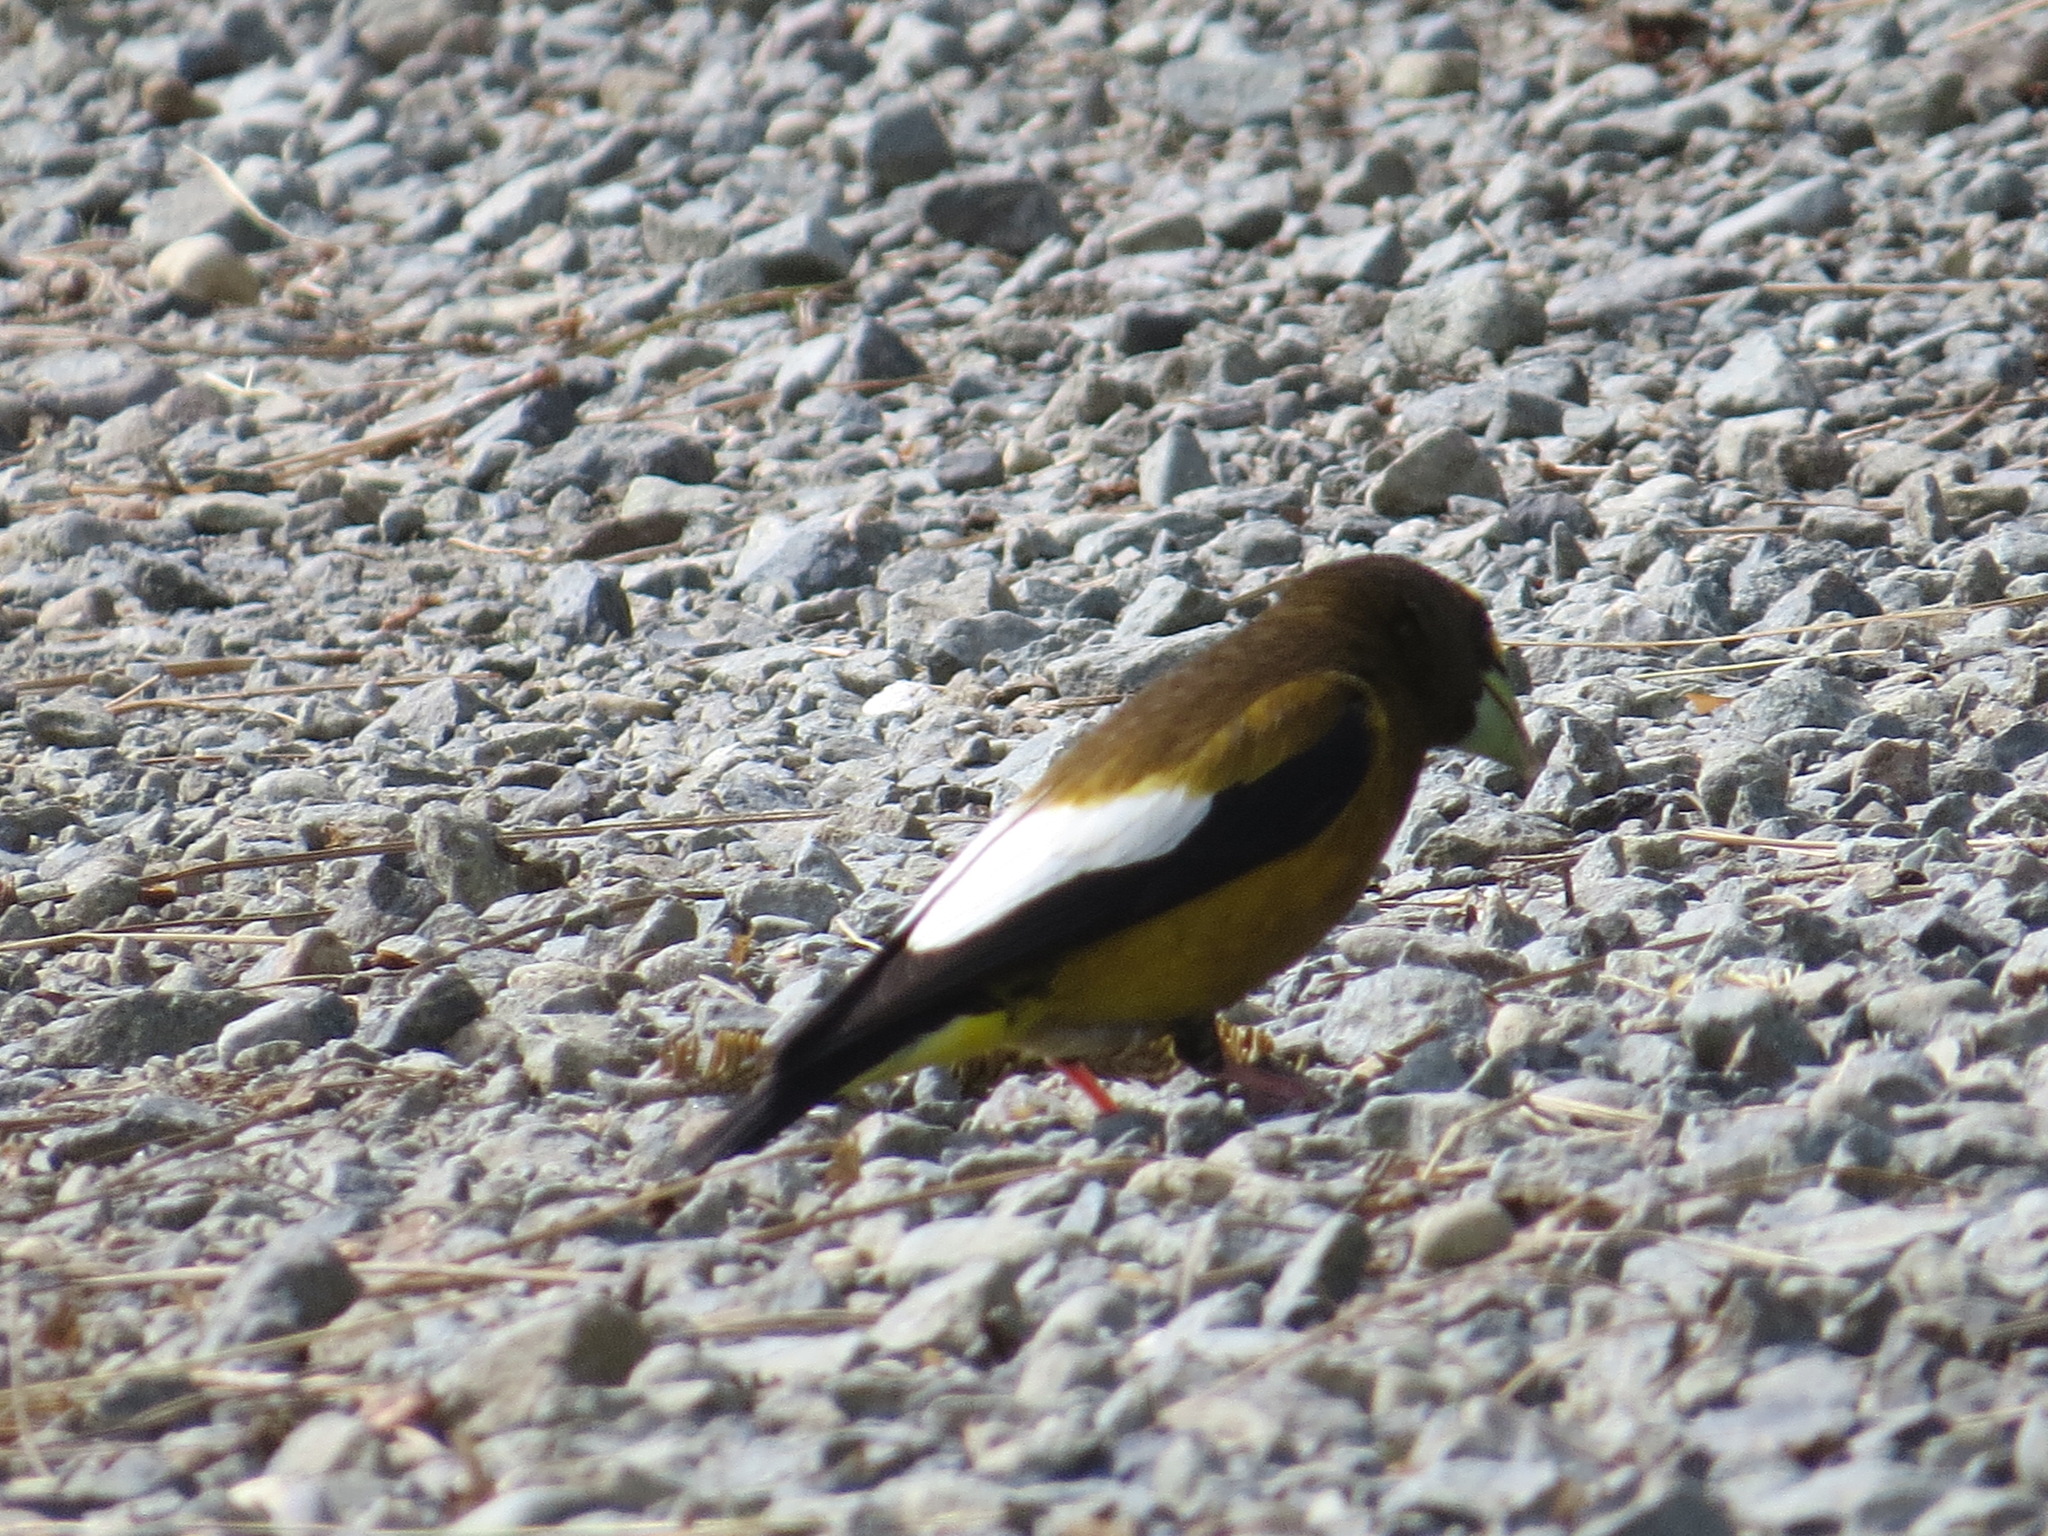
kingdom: Animalia
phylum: Chordata
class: Aves
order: Passeriformes
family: Fringillidae
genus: Hesperiphona
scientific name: Hesperiphona vespertina
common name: Evening grosbeak
